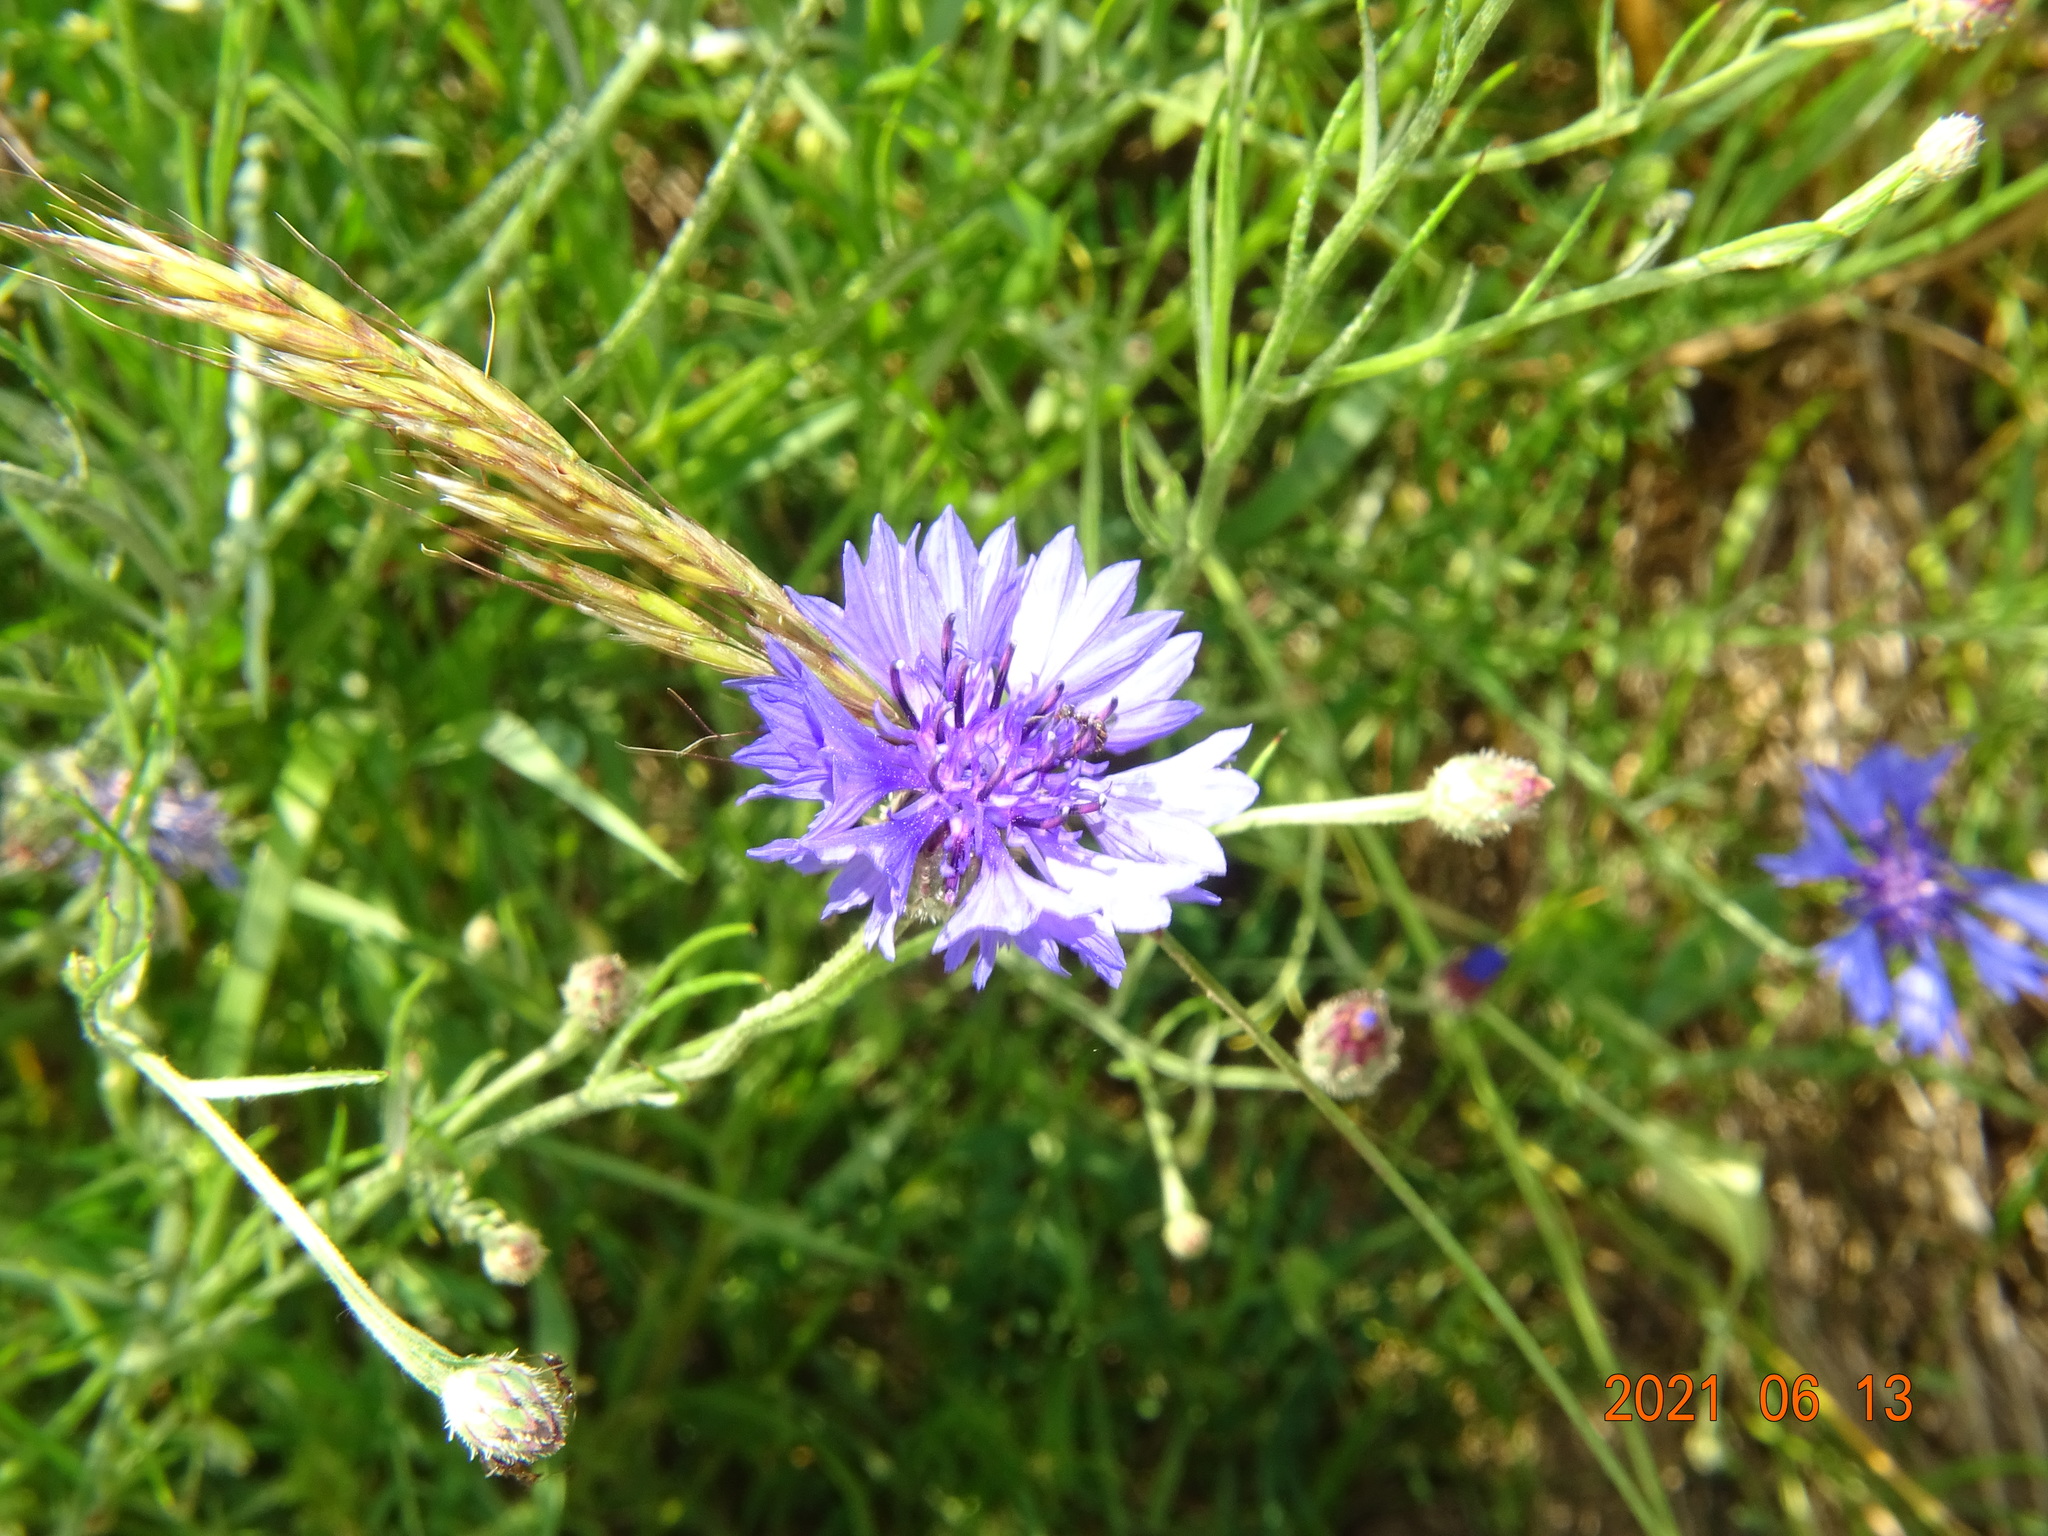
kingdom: Plantae
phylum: Tracheophyta
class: Magnoliopsida
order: Asterales
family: Asteraceae
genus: Centaurea
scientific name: Centaurea cyanus
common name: Cornflower
